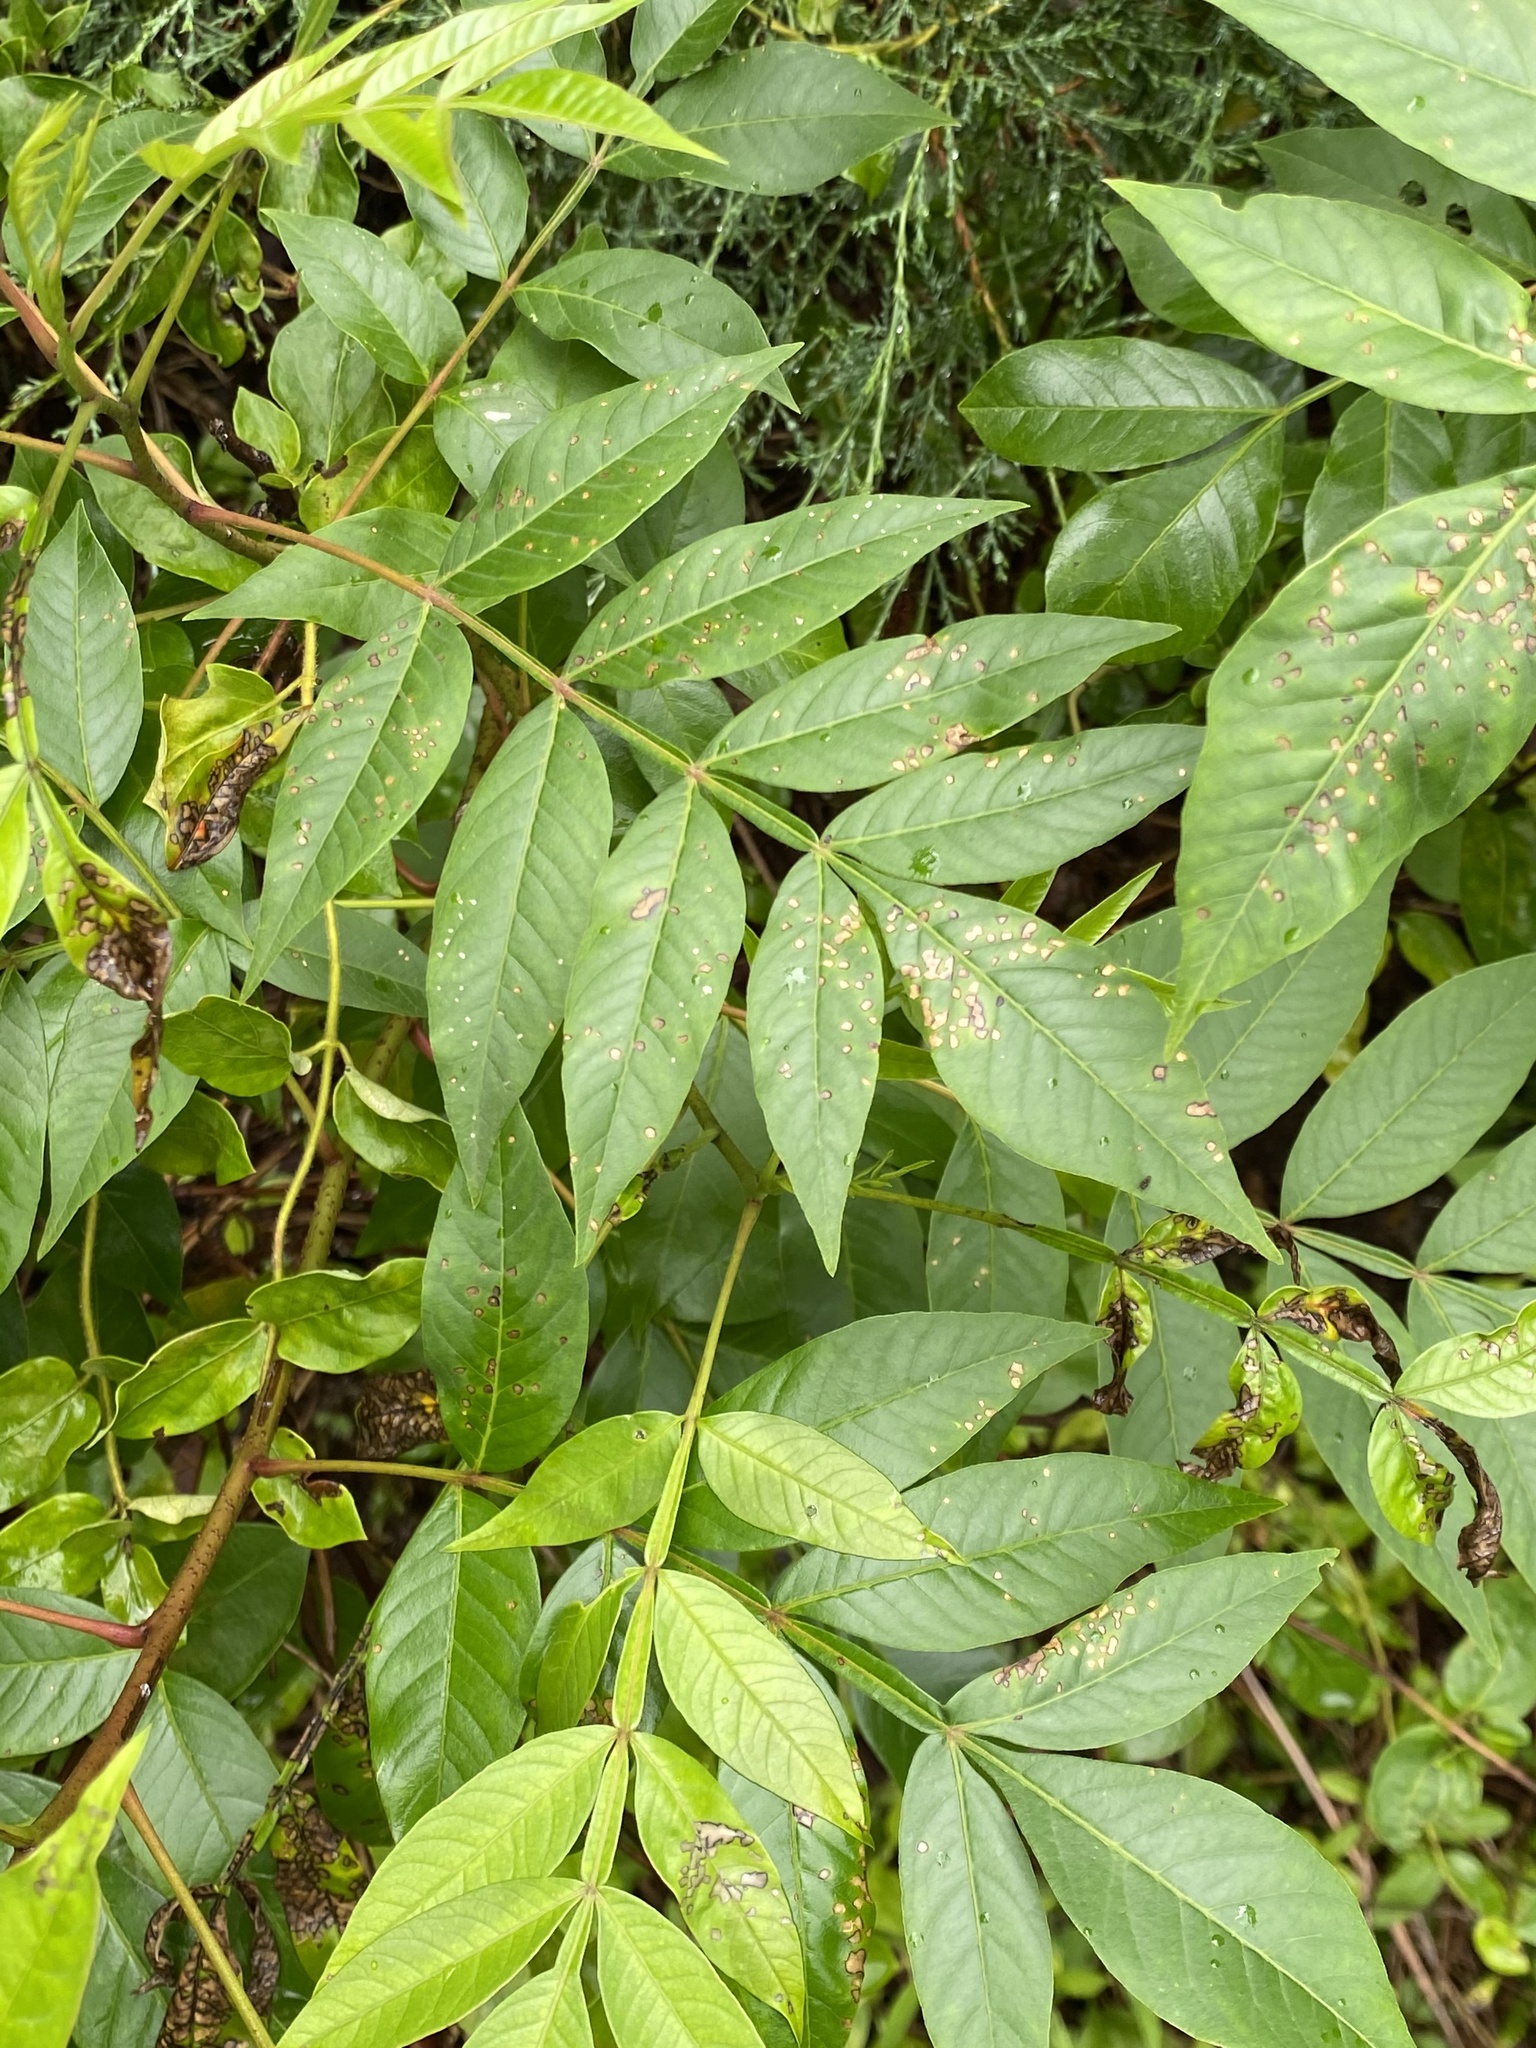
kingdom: Plantae
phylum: Tracheophyta
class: Magnoliopsida
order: Sapindales
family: Anacardiaceae
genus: Rhus
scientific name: Rhus copallina
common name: Shining sumac
